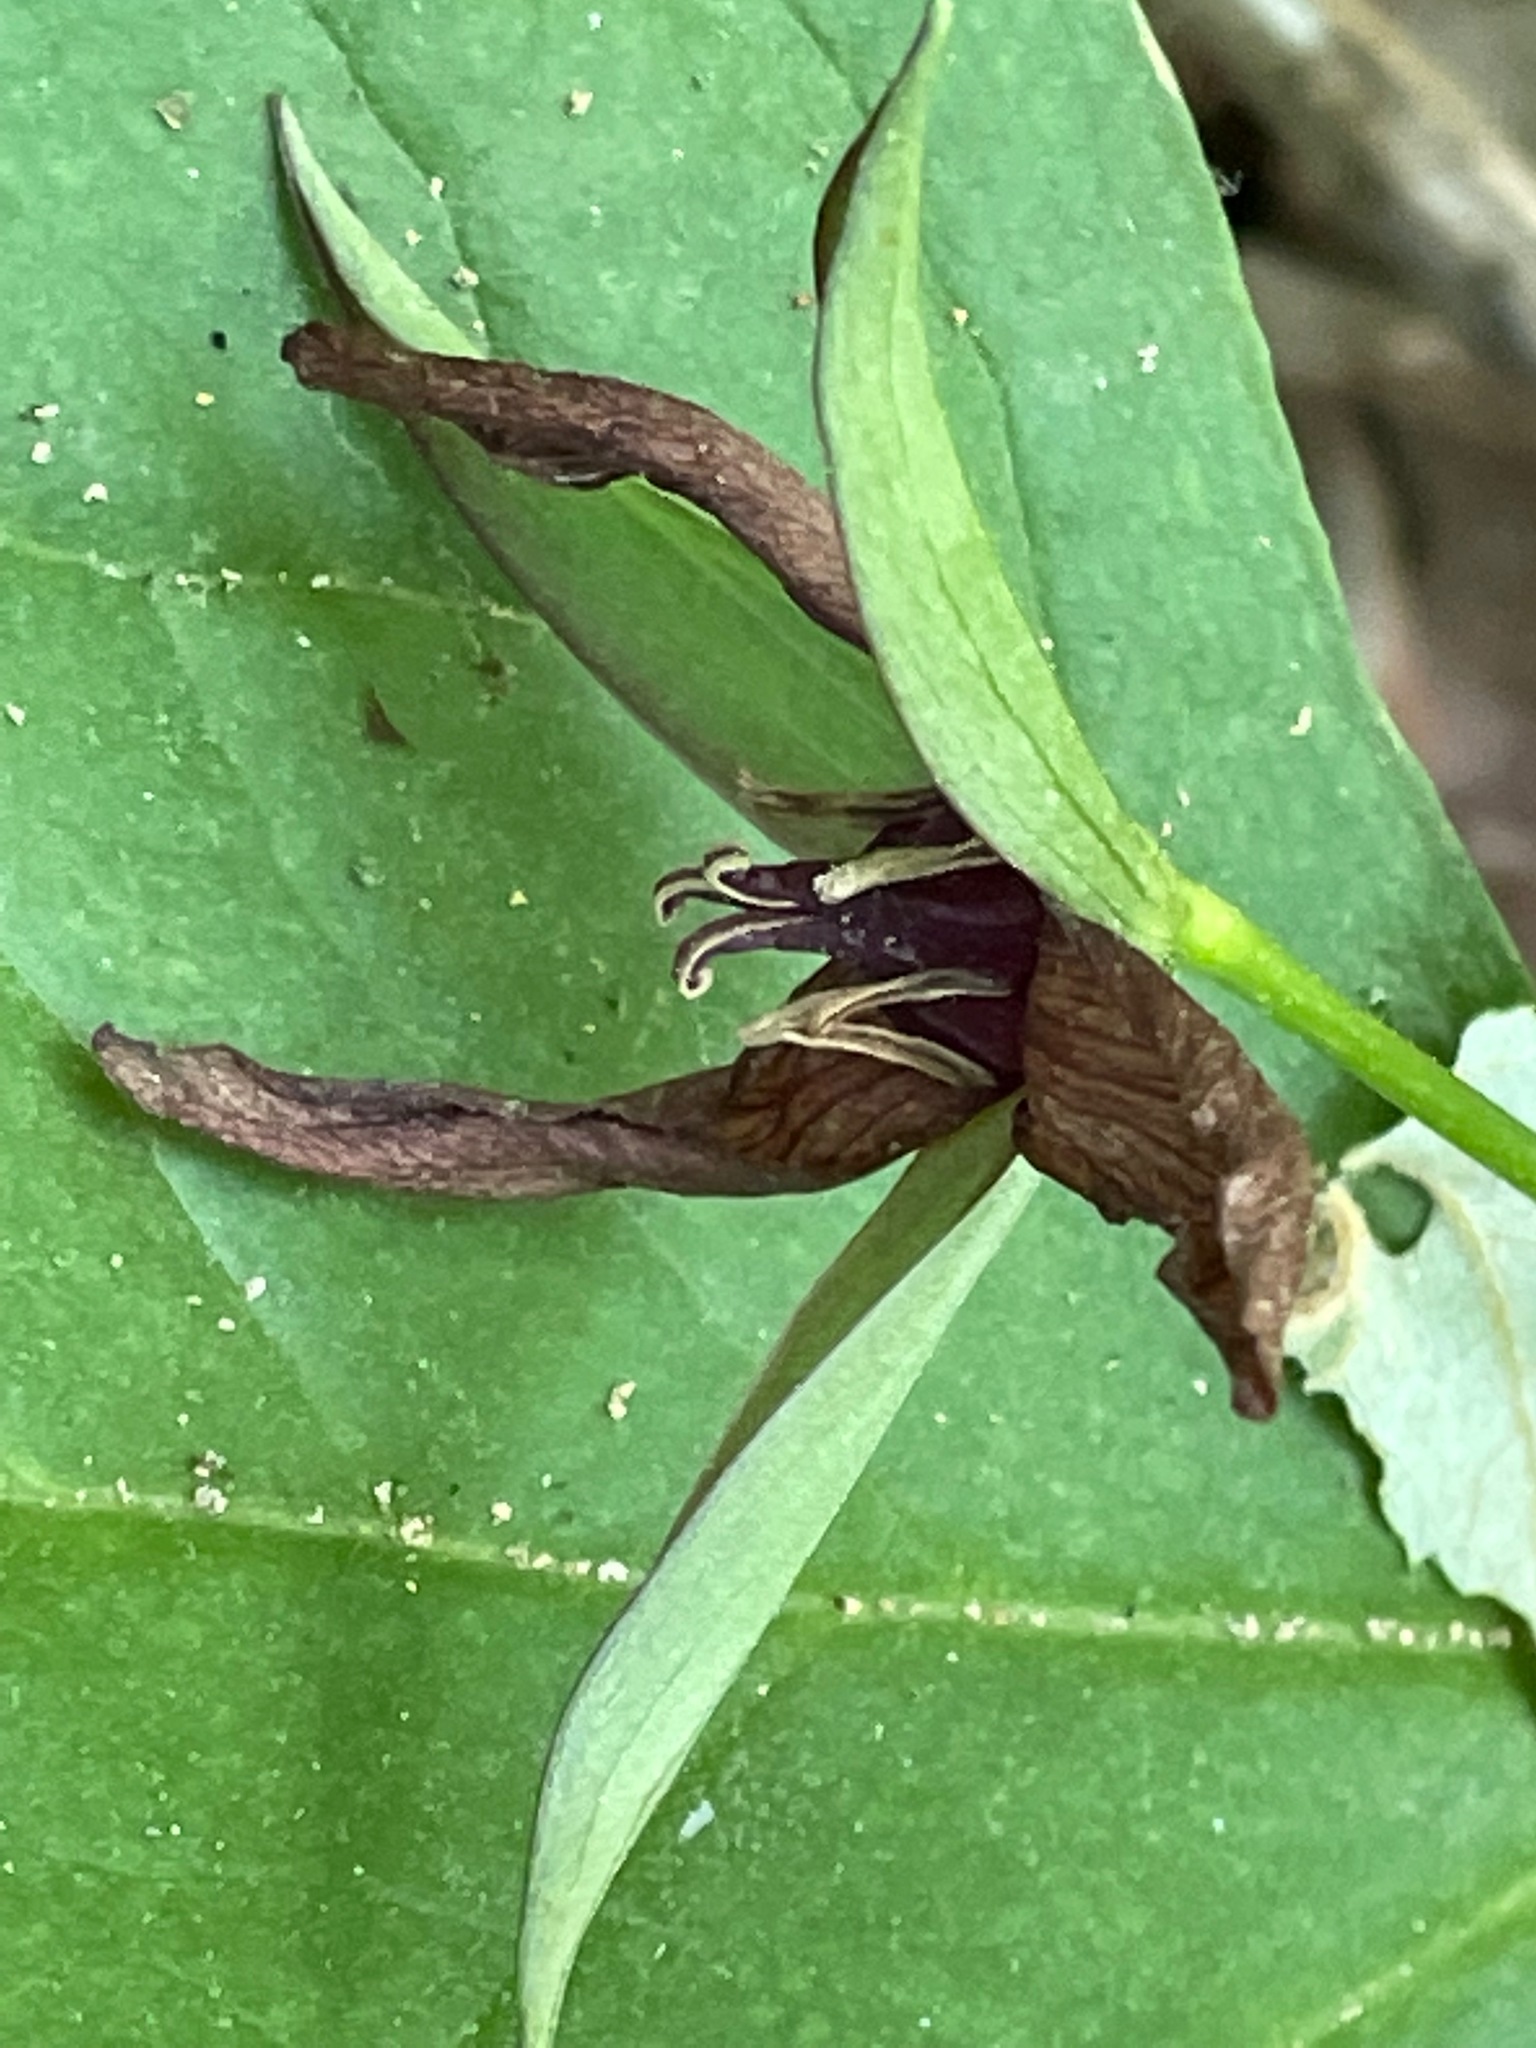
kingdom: Plantae
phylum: Tracheophyta
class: Liliopsida
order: Liliales
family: Melanthiaceae
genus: Trillium
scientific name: Trillium erectum
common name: Purple trillium
